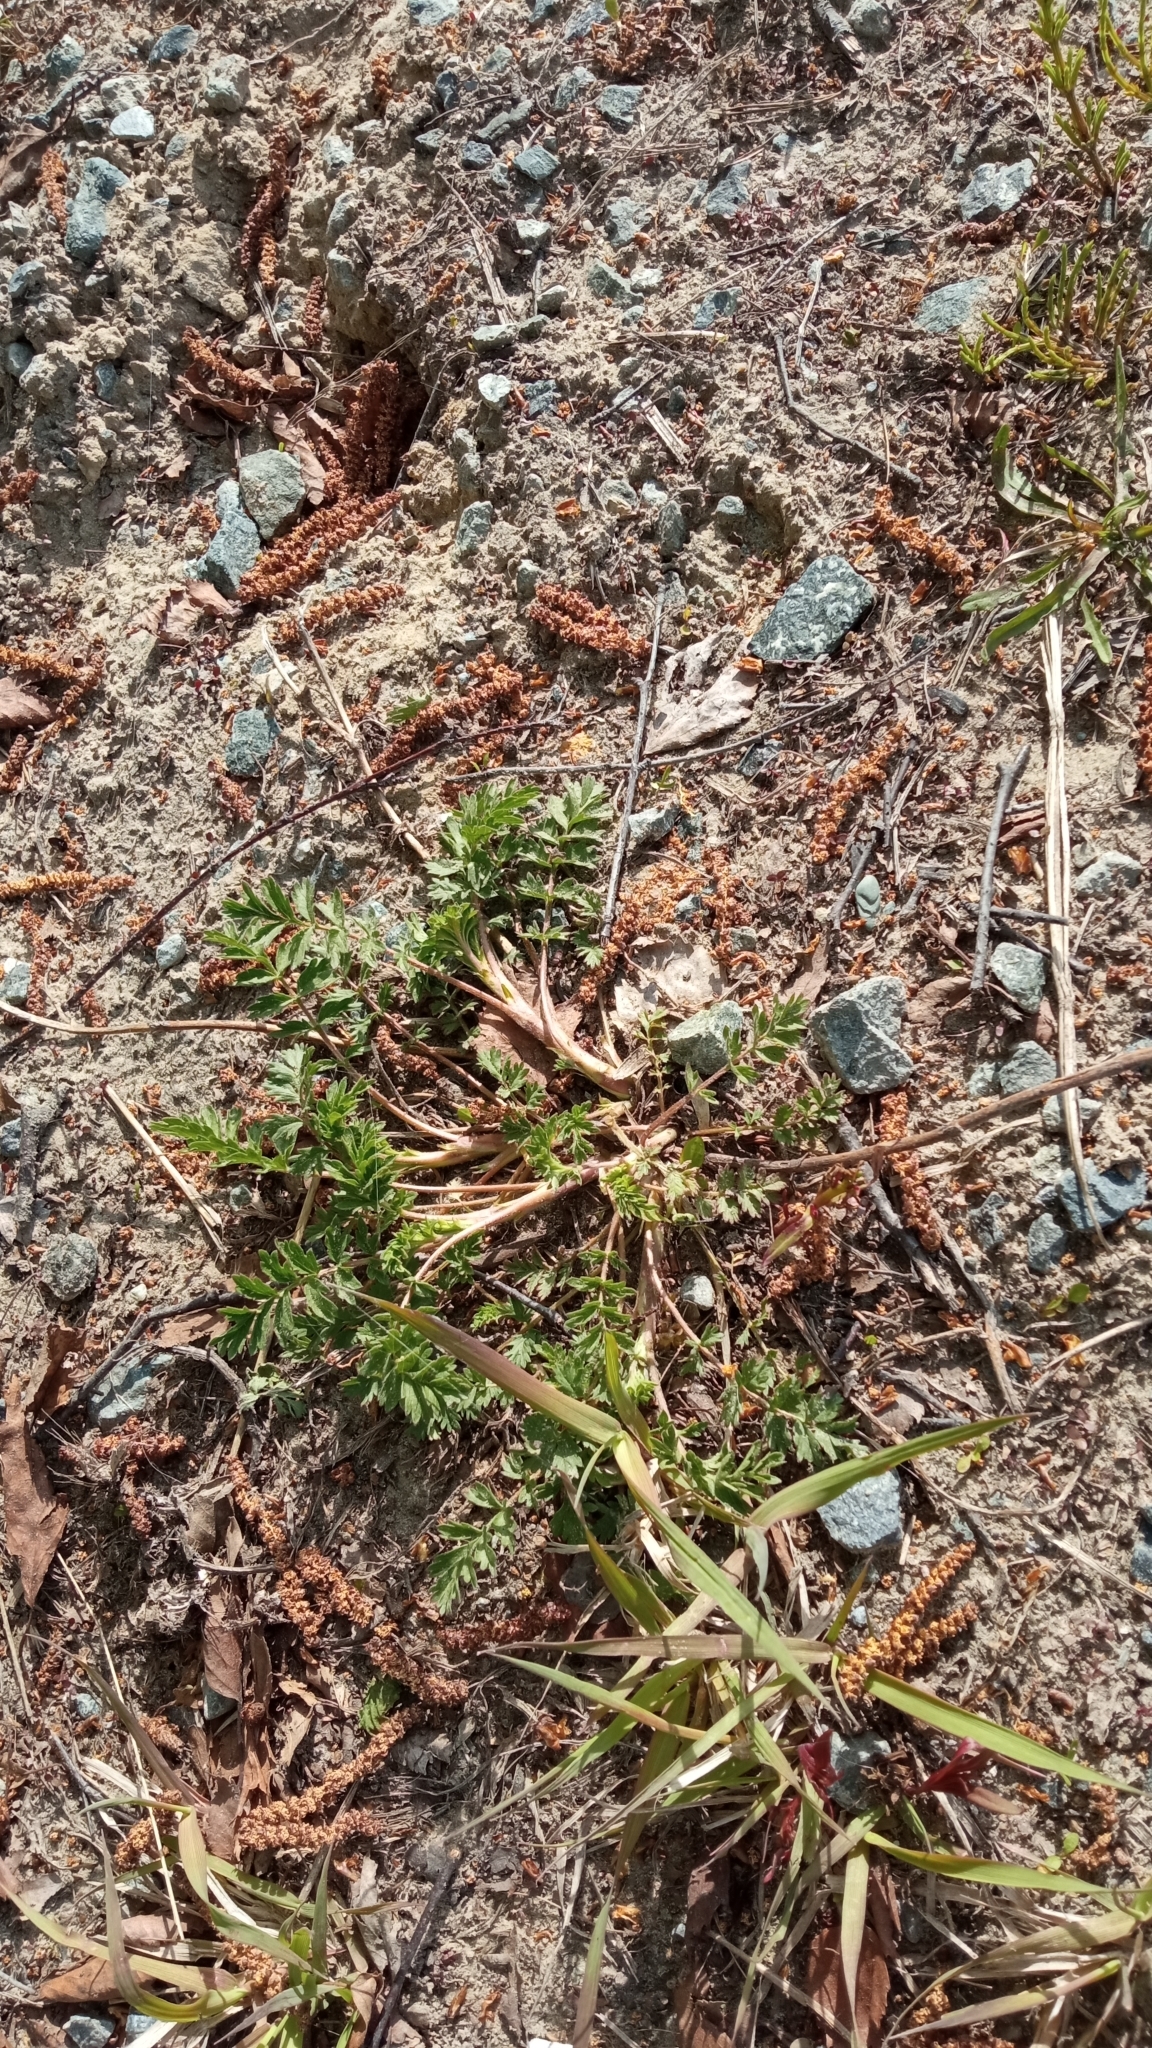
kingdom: Plantae
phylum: Tracheophyta
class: Magnoliopsida
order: Rosales
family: Rosaceae
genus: Potentilla
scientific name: Potentilla supina
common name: Prostrate cinquefoil
